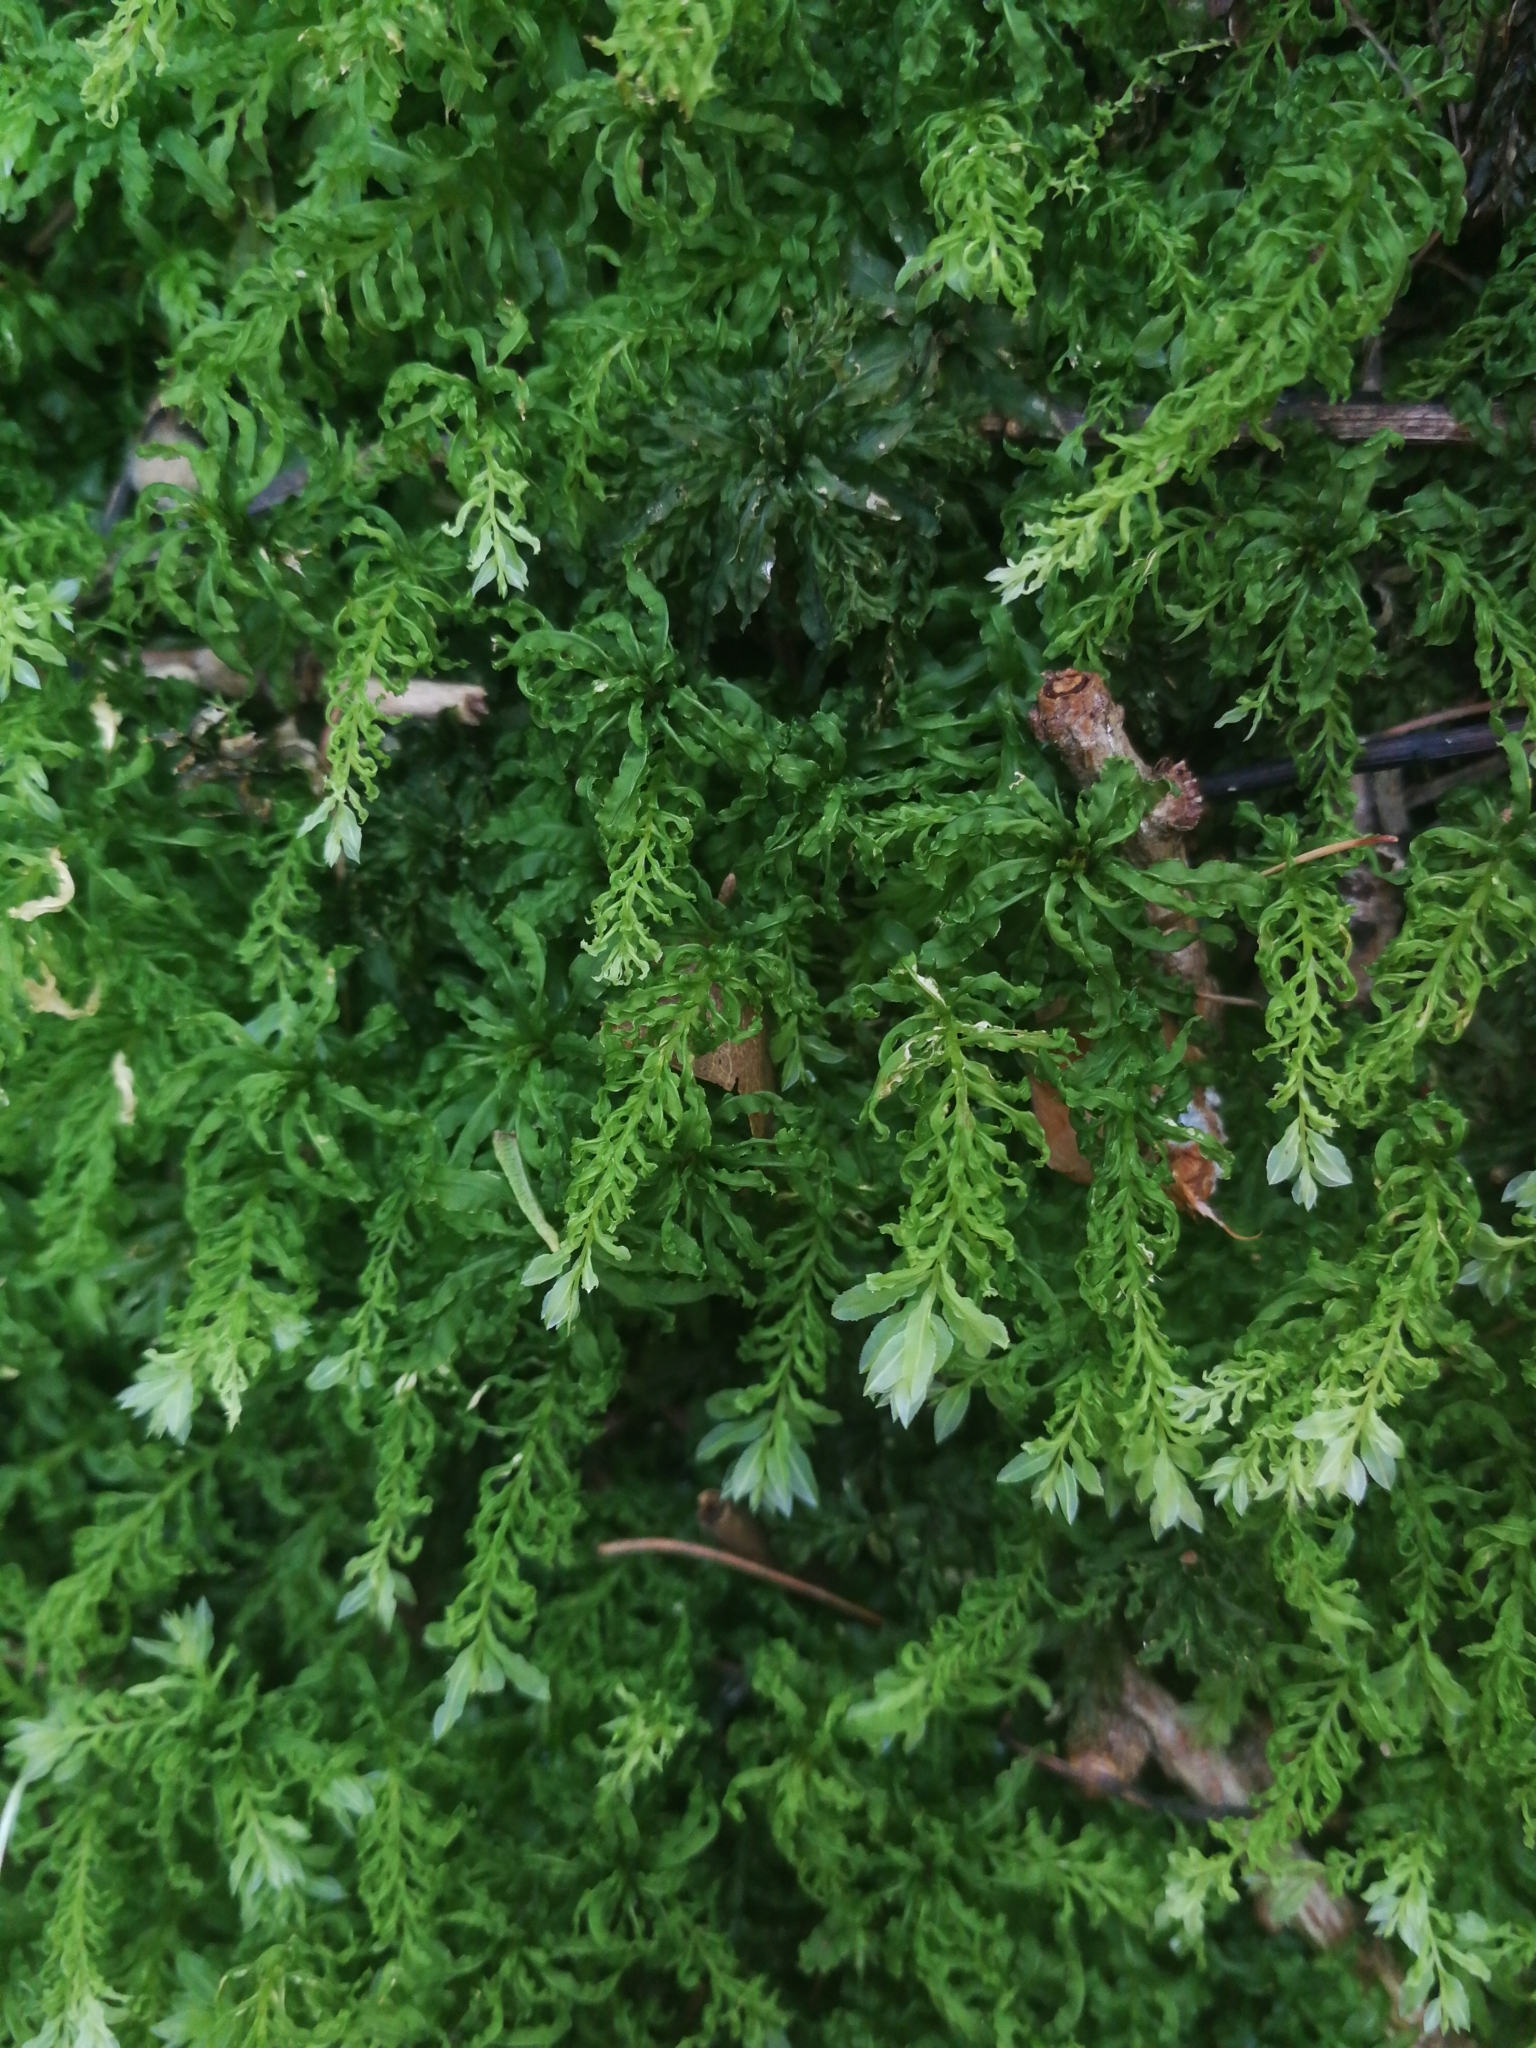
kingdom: Plantae
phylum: Bryophyta
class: Bryopsida
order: Bryales
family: Mniaceae
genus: Plagiomnium
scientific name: Plagiomnium undulatum
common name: Hart's-tongue thyme-moss
